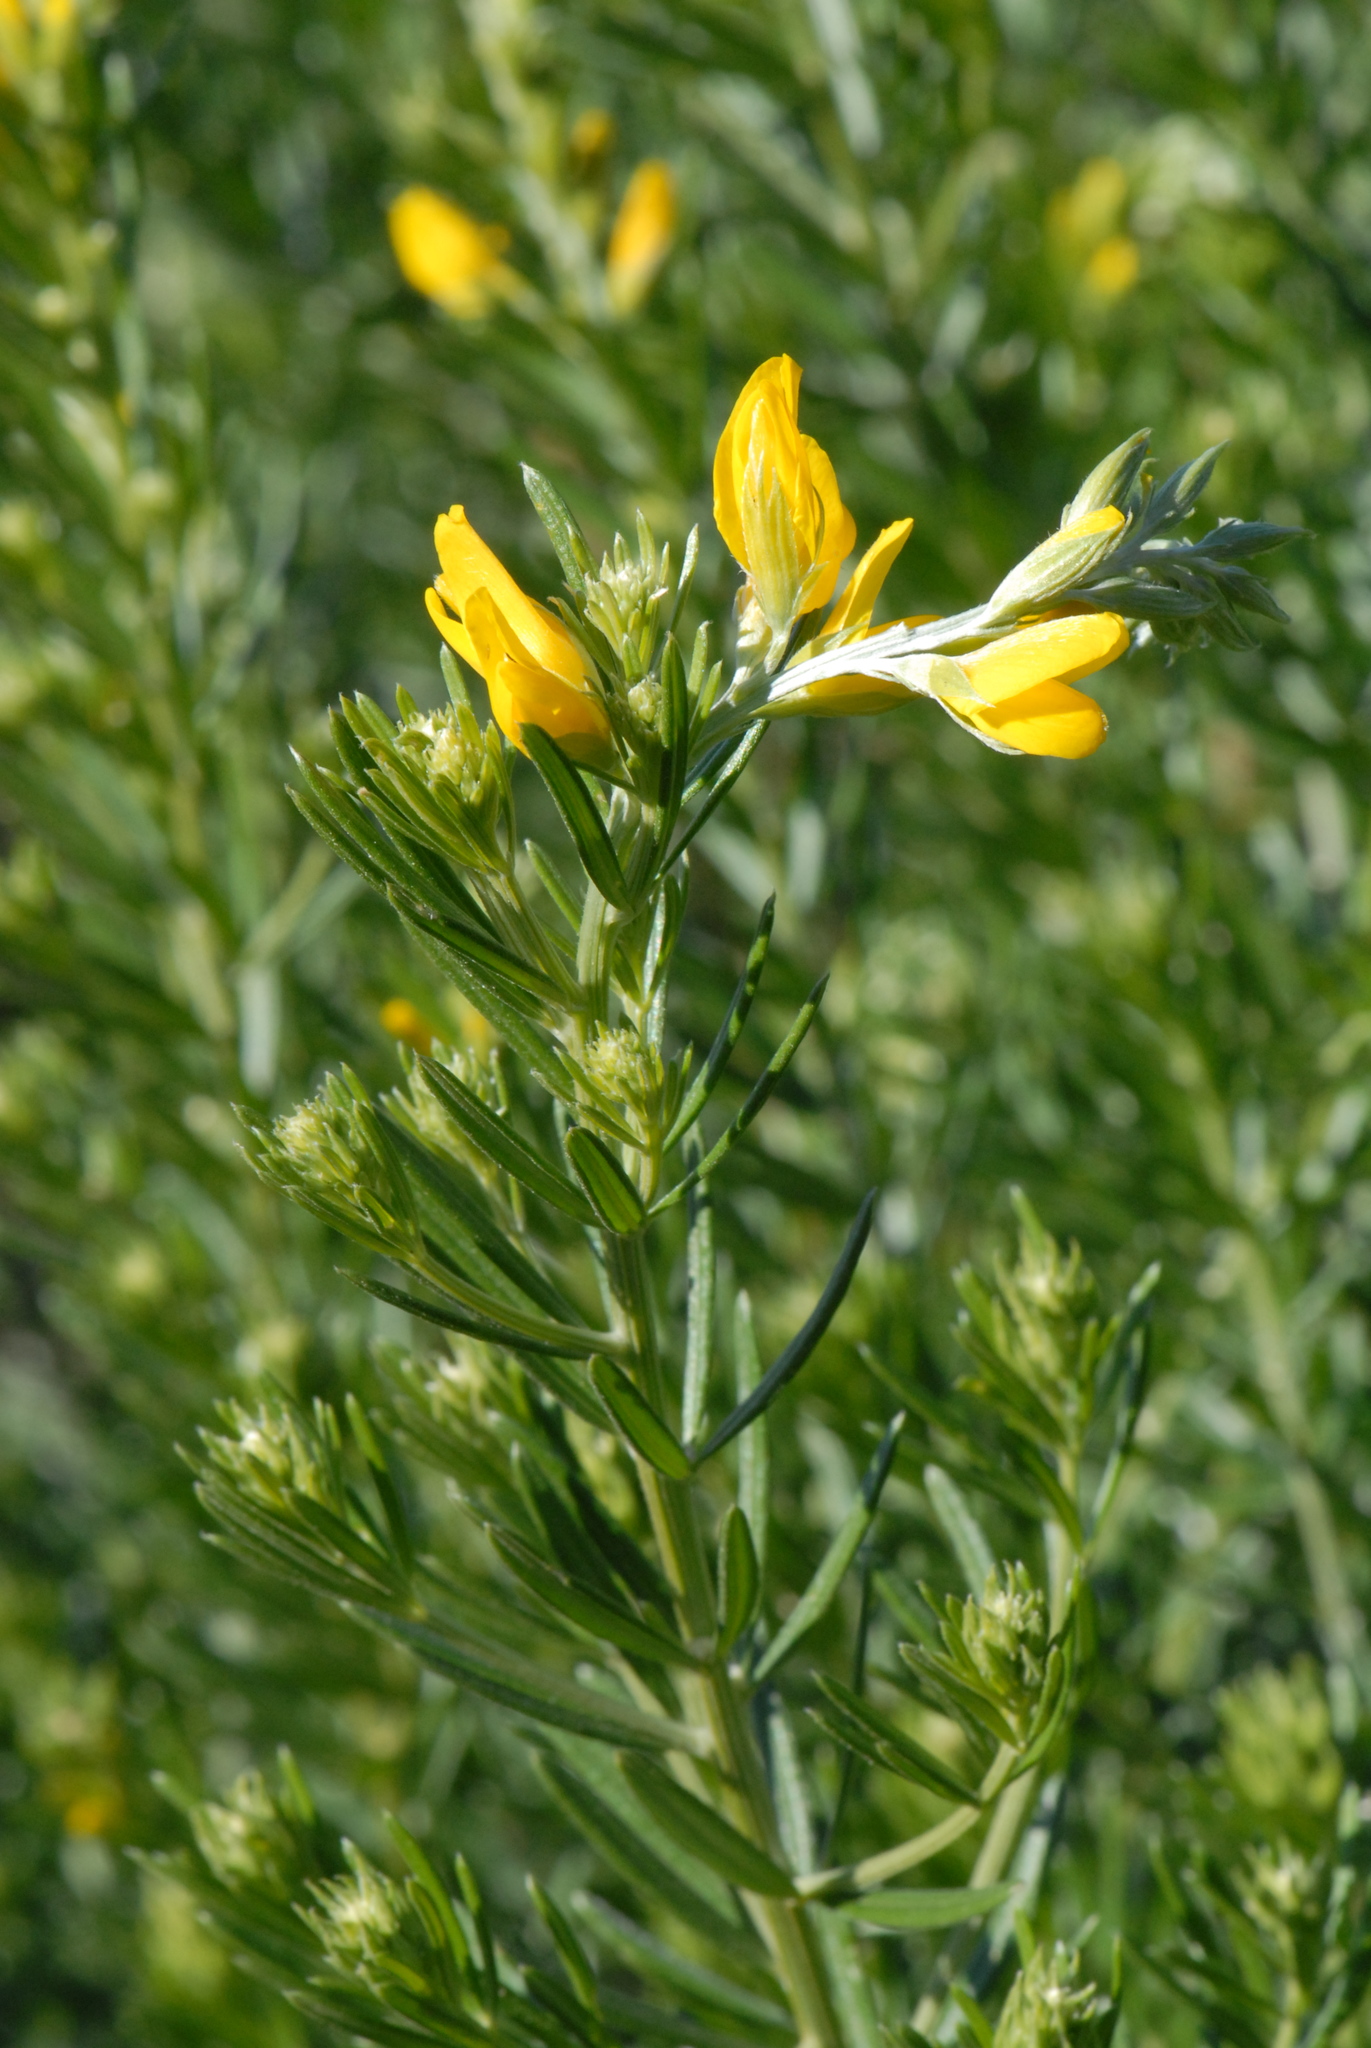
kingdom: Plantae
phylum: Tracheophyta
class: Magnoliopsida
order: Fabales
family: Fabaceae
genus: Genista
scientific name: Genista linifolia
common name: Mediterranean broom
